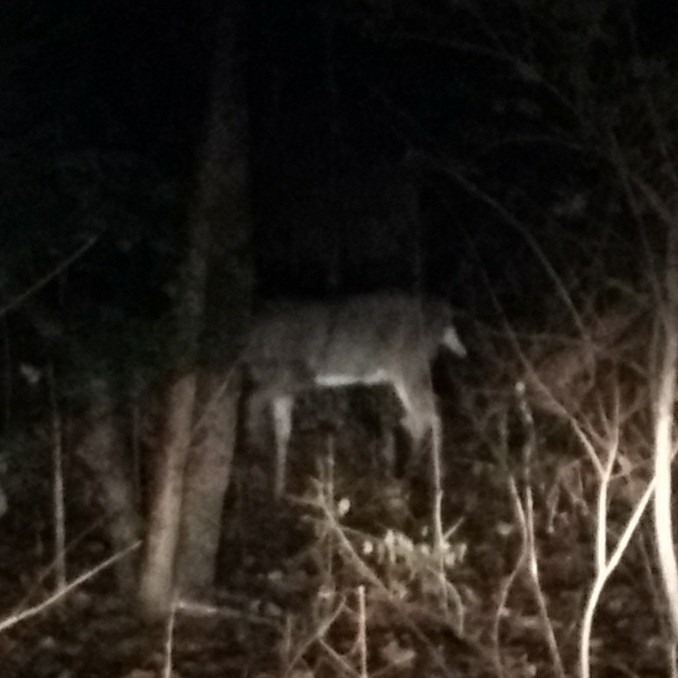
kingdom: Animalia
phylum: Chordata
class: Mammalia
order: Artiodactyla
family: Cervidae
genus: Odocoileus
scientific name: Odocoileus virginianus
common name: White-tailed deer
